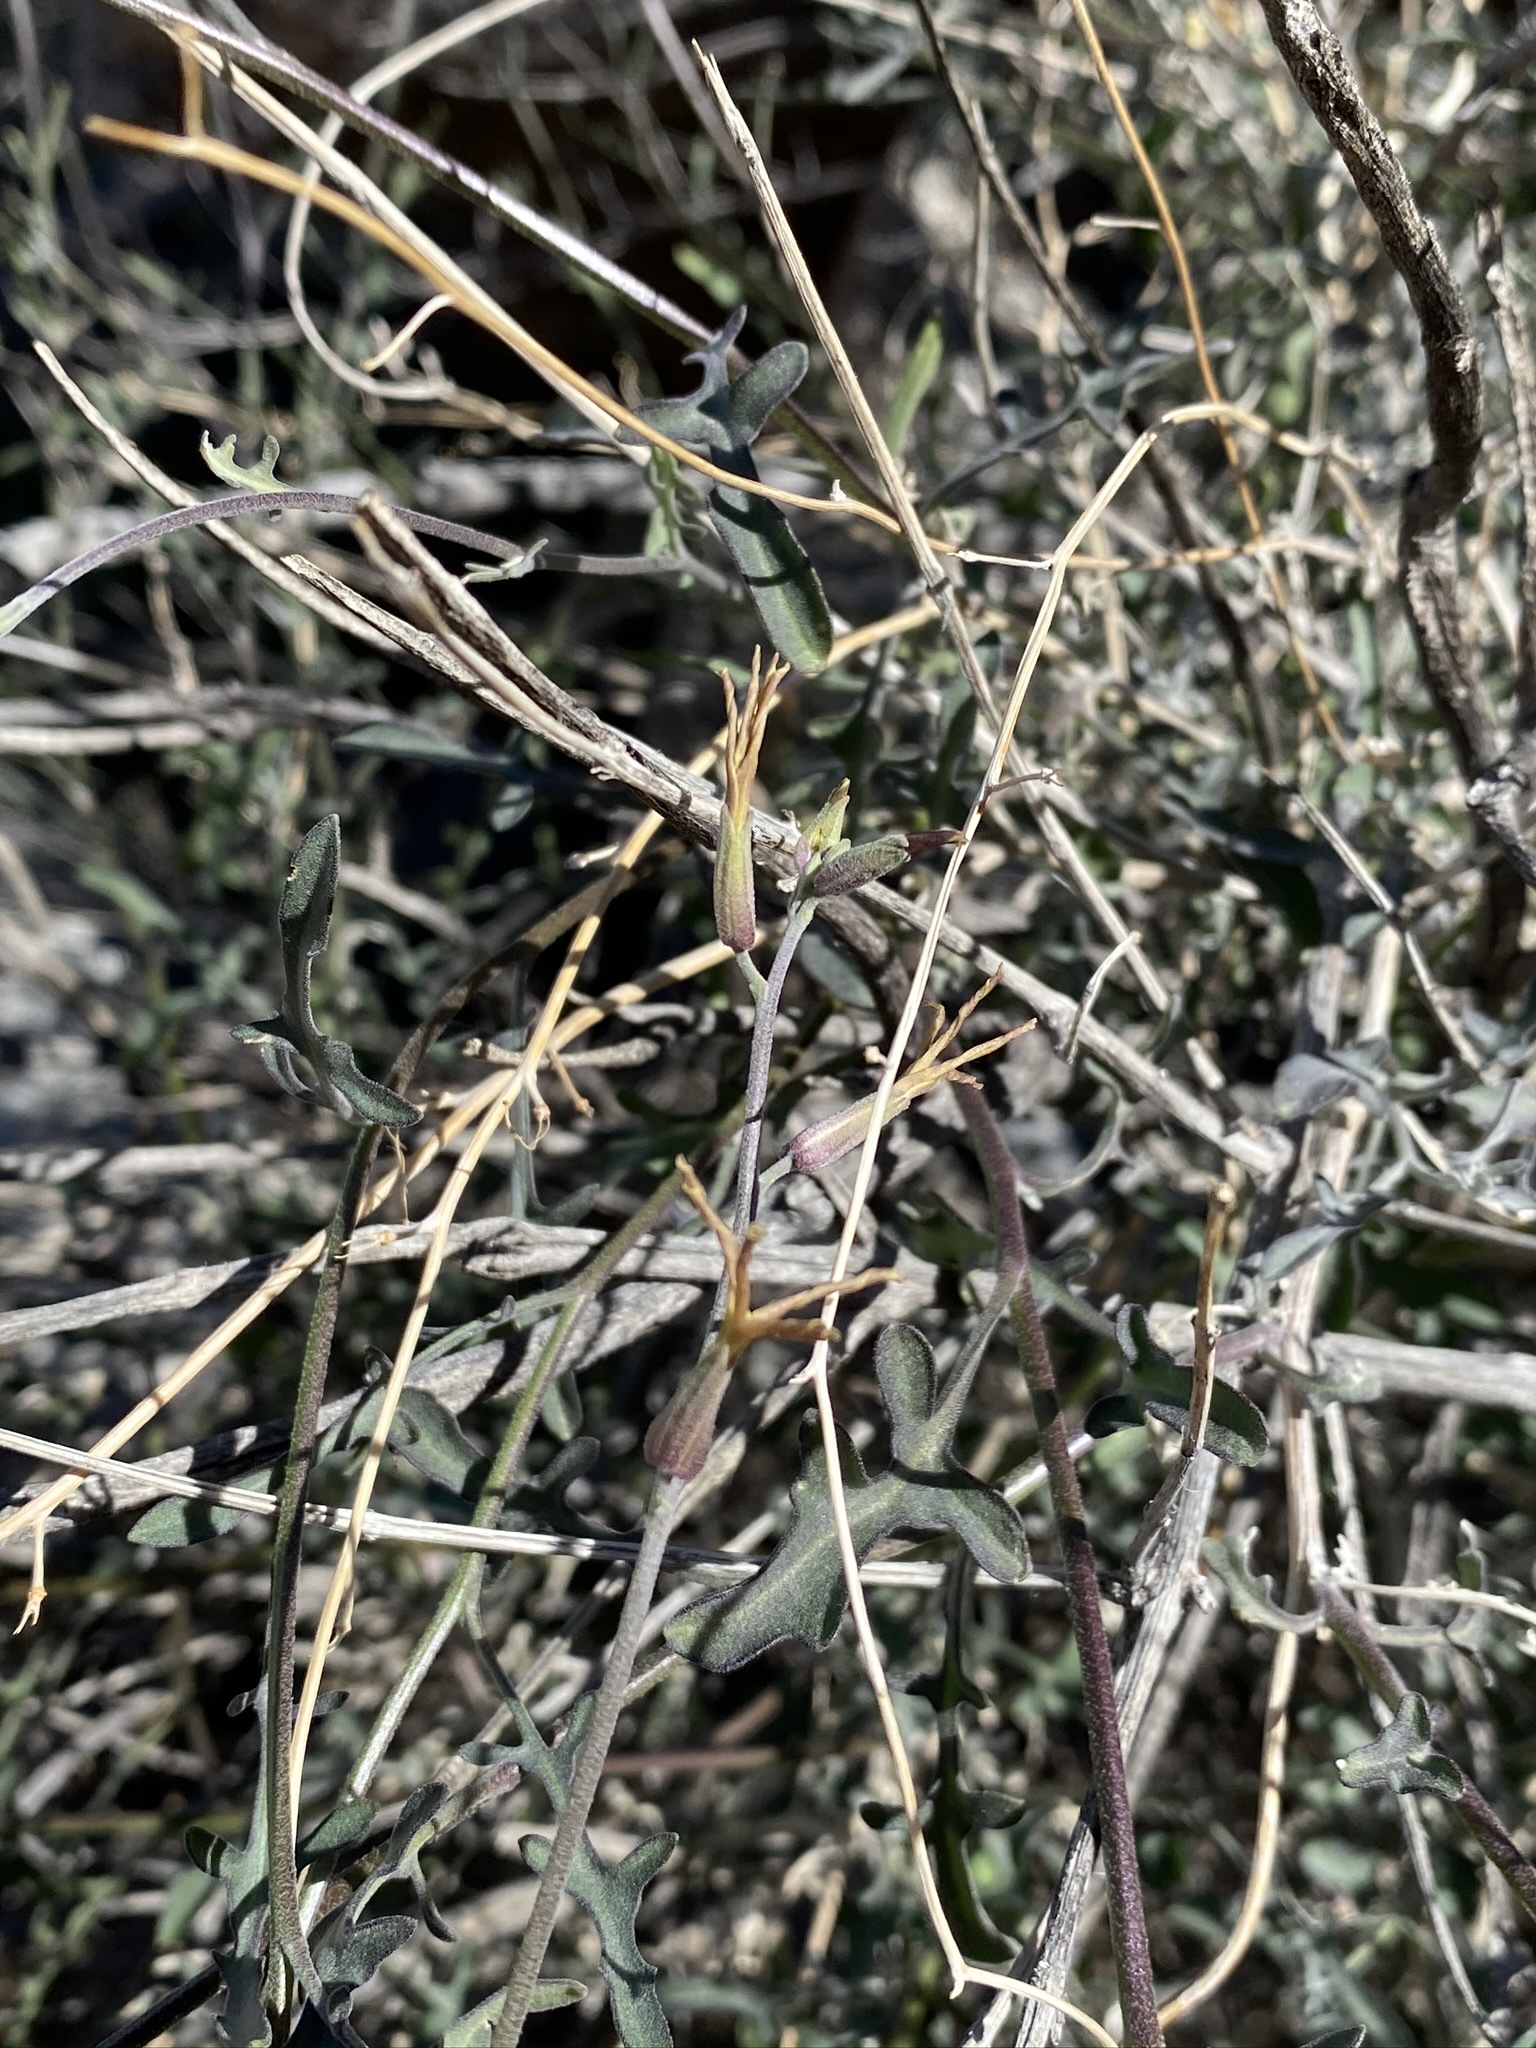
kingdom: Plantae
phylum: Tracheophyta
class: Magnoliopsida
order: Brassicales
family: Brassicaceae
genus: Lyrocarpa
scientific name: Lyrocarpa coulteri
